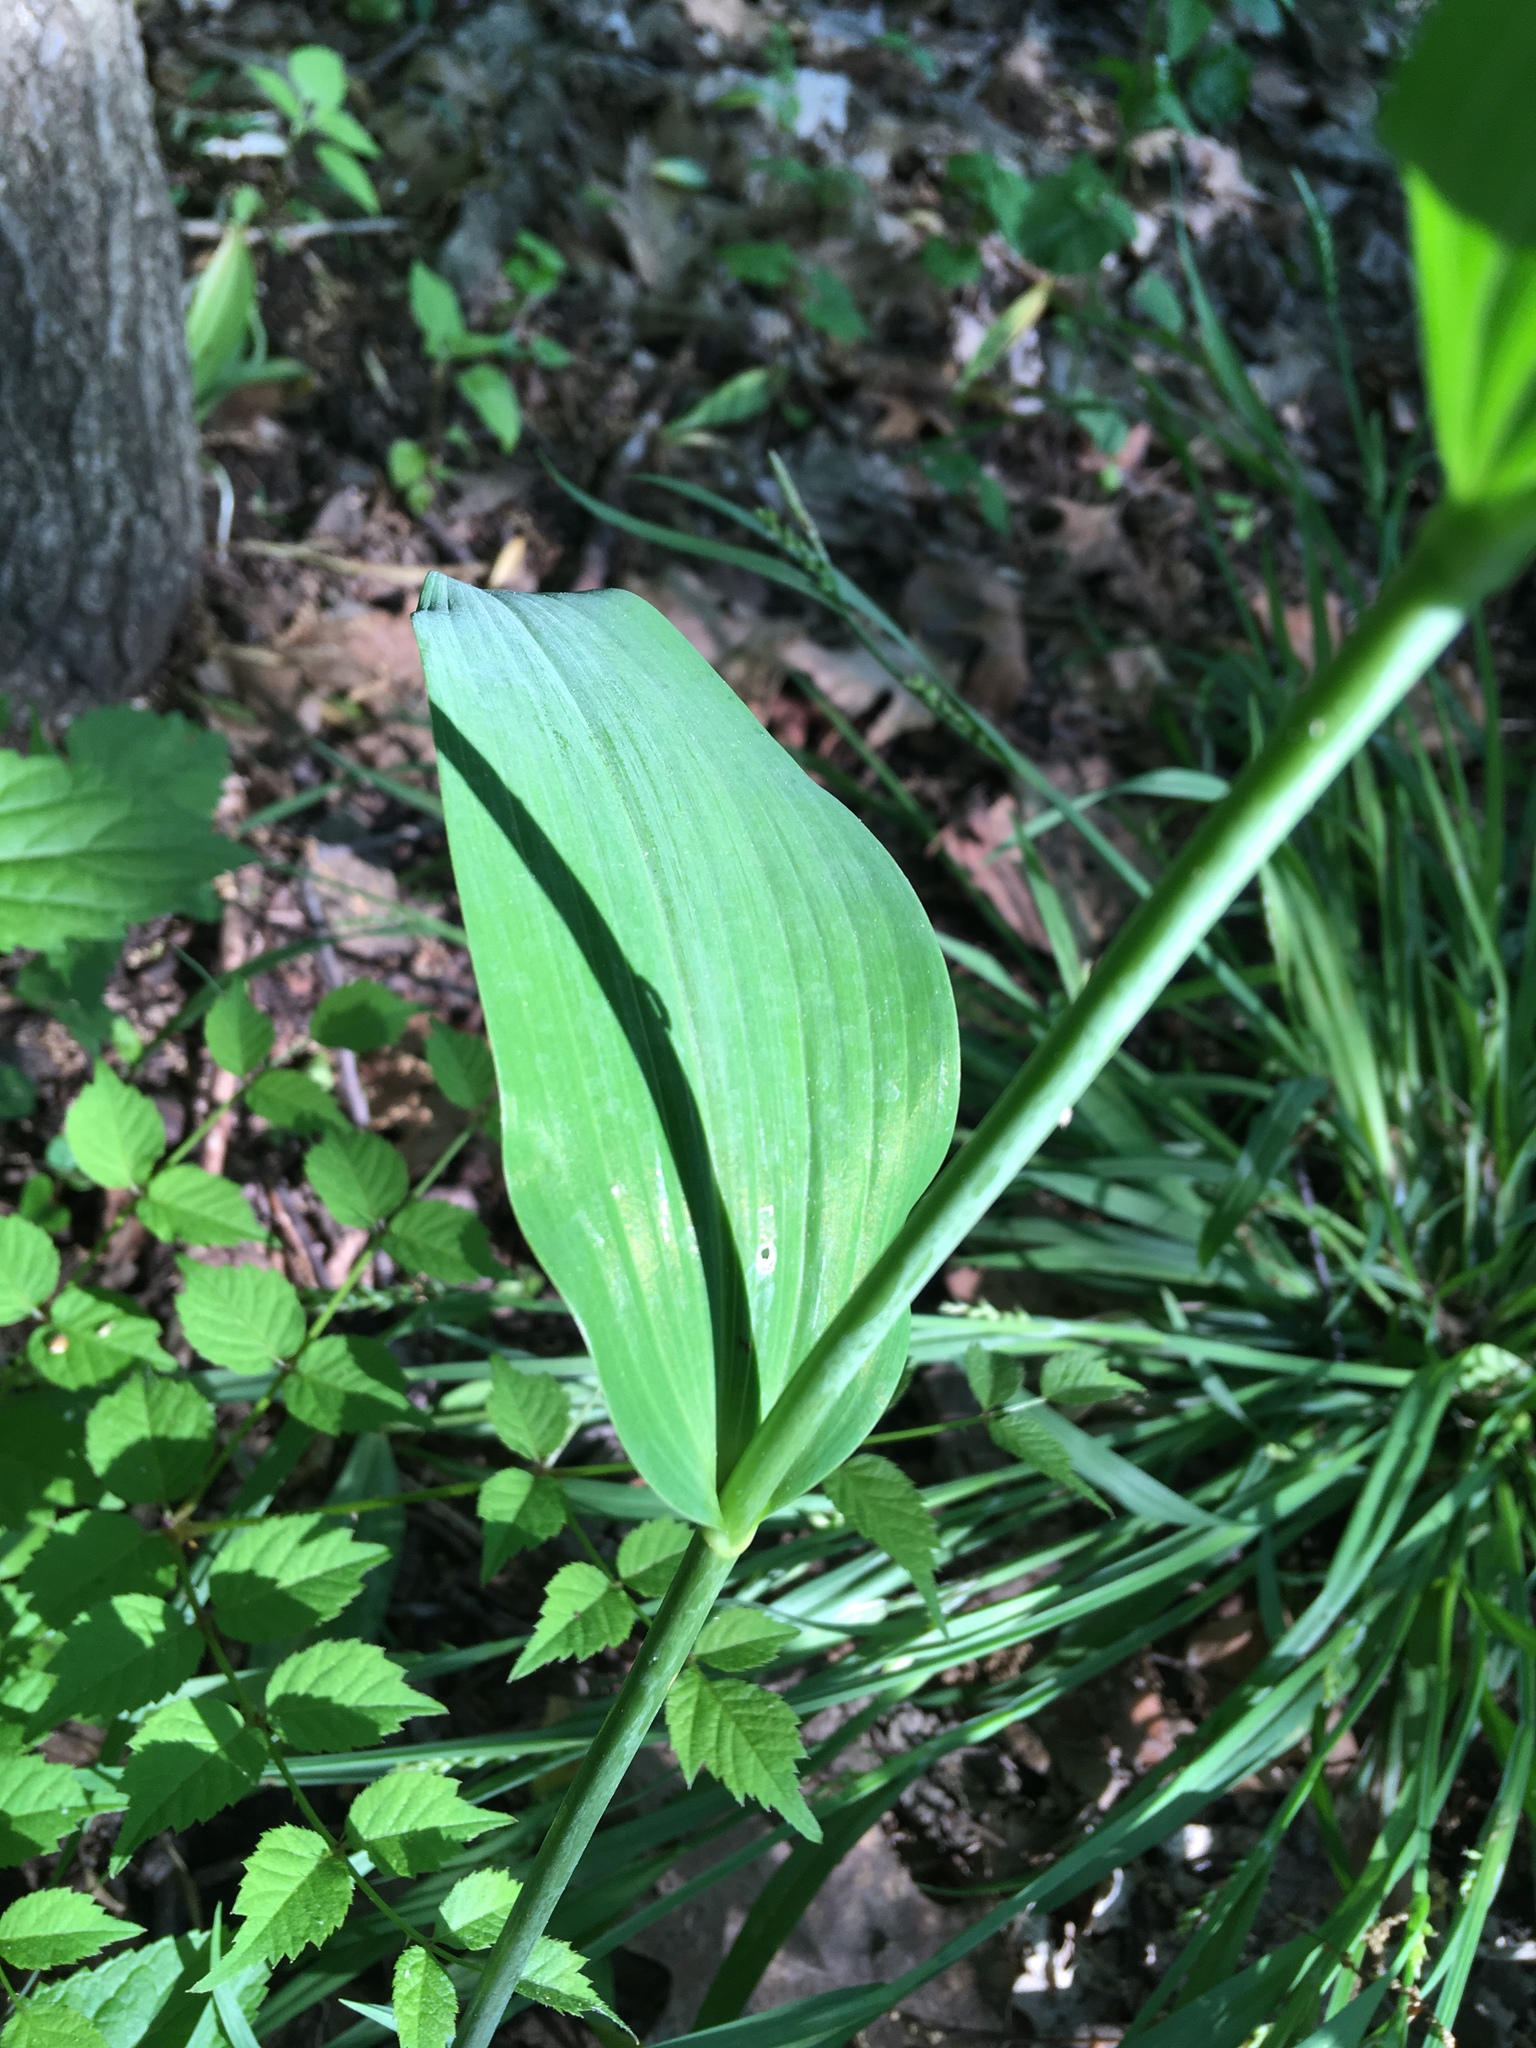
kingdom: Plantae
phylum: Tracheophyta
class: Liliopsida
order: Asparagales
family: Asparagaceae
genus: Polygonatum
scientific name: Polygonatum biflorum
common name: American solomon's-seal
